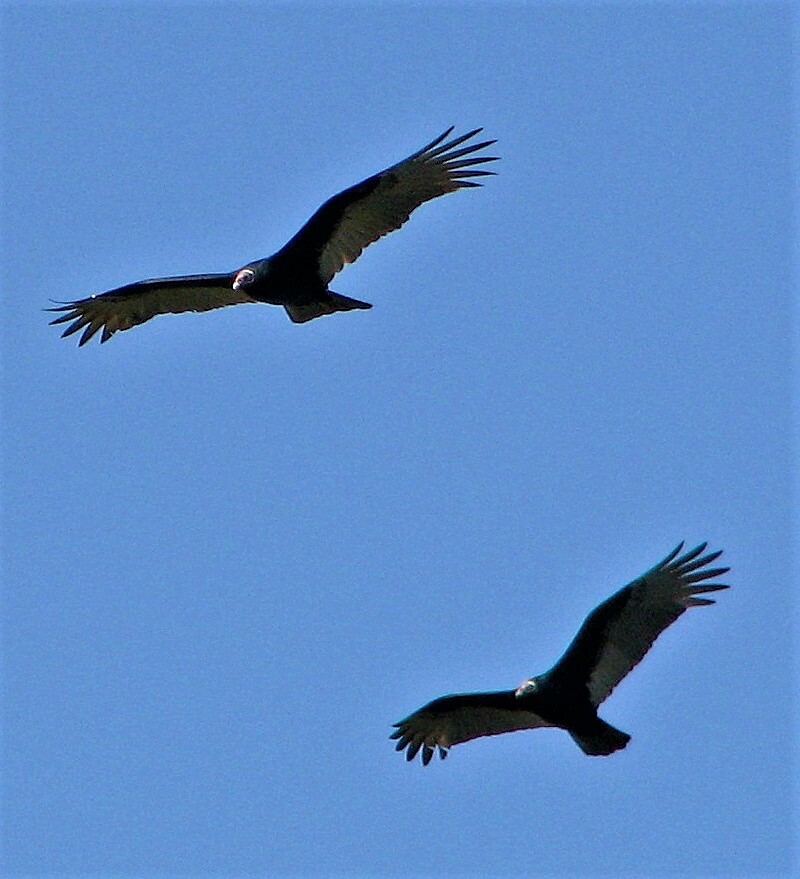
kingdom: Animalia
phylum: Chordata
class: Aves
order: Accipitriformes
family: Cathartidae
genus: Cathartes
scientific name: Cathartes aura
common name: Turkey vulture
